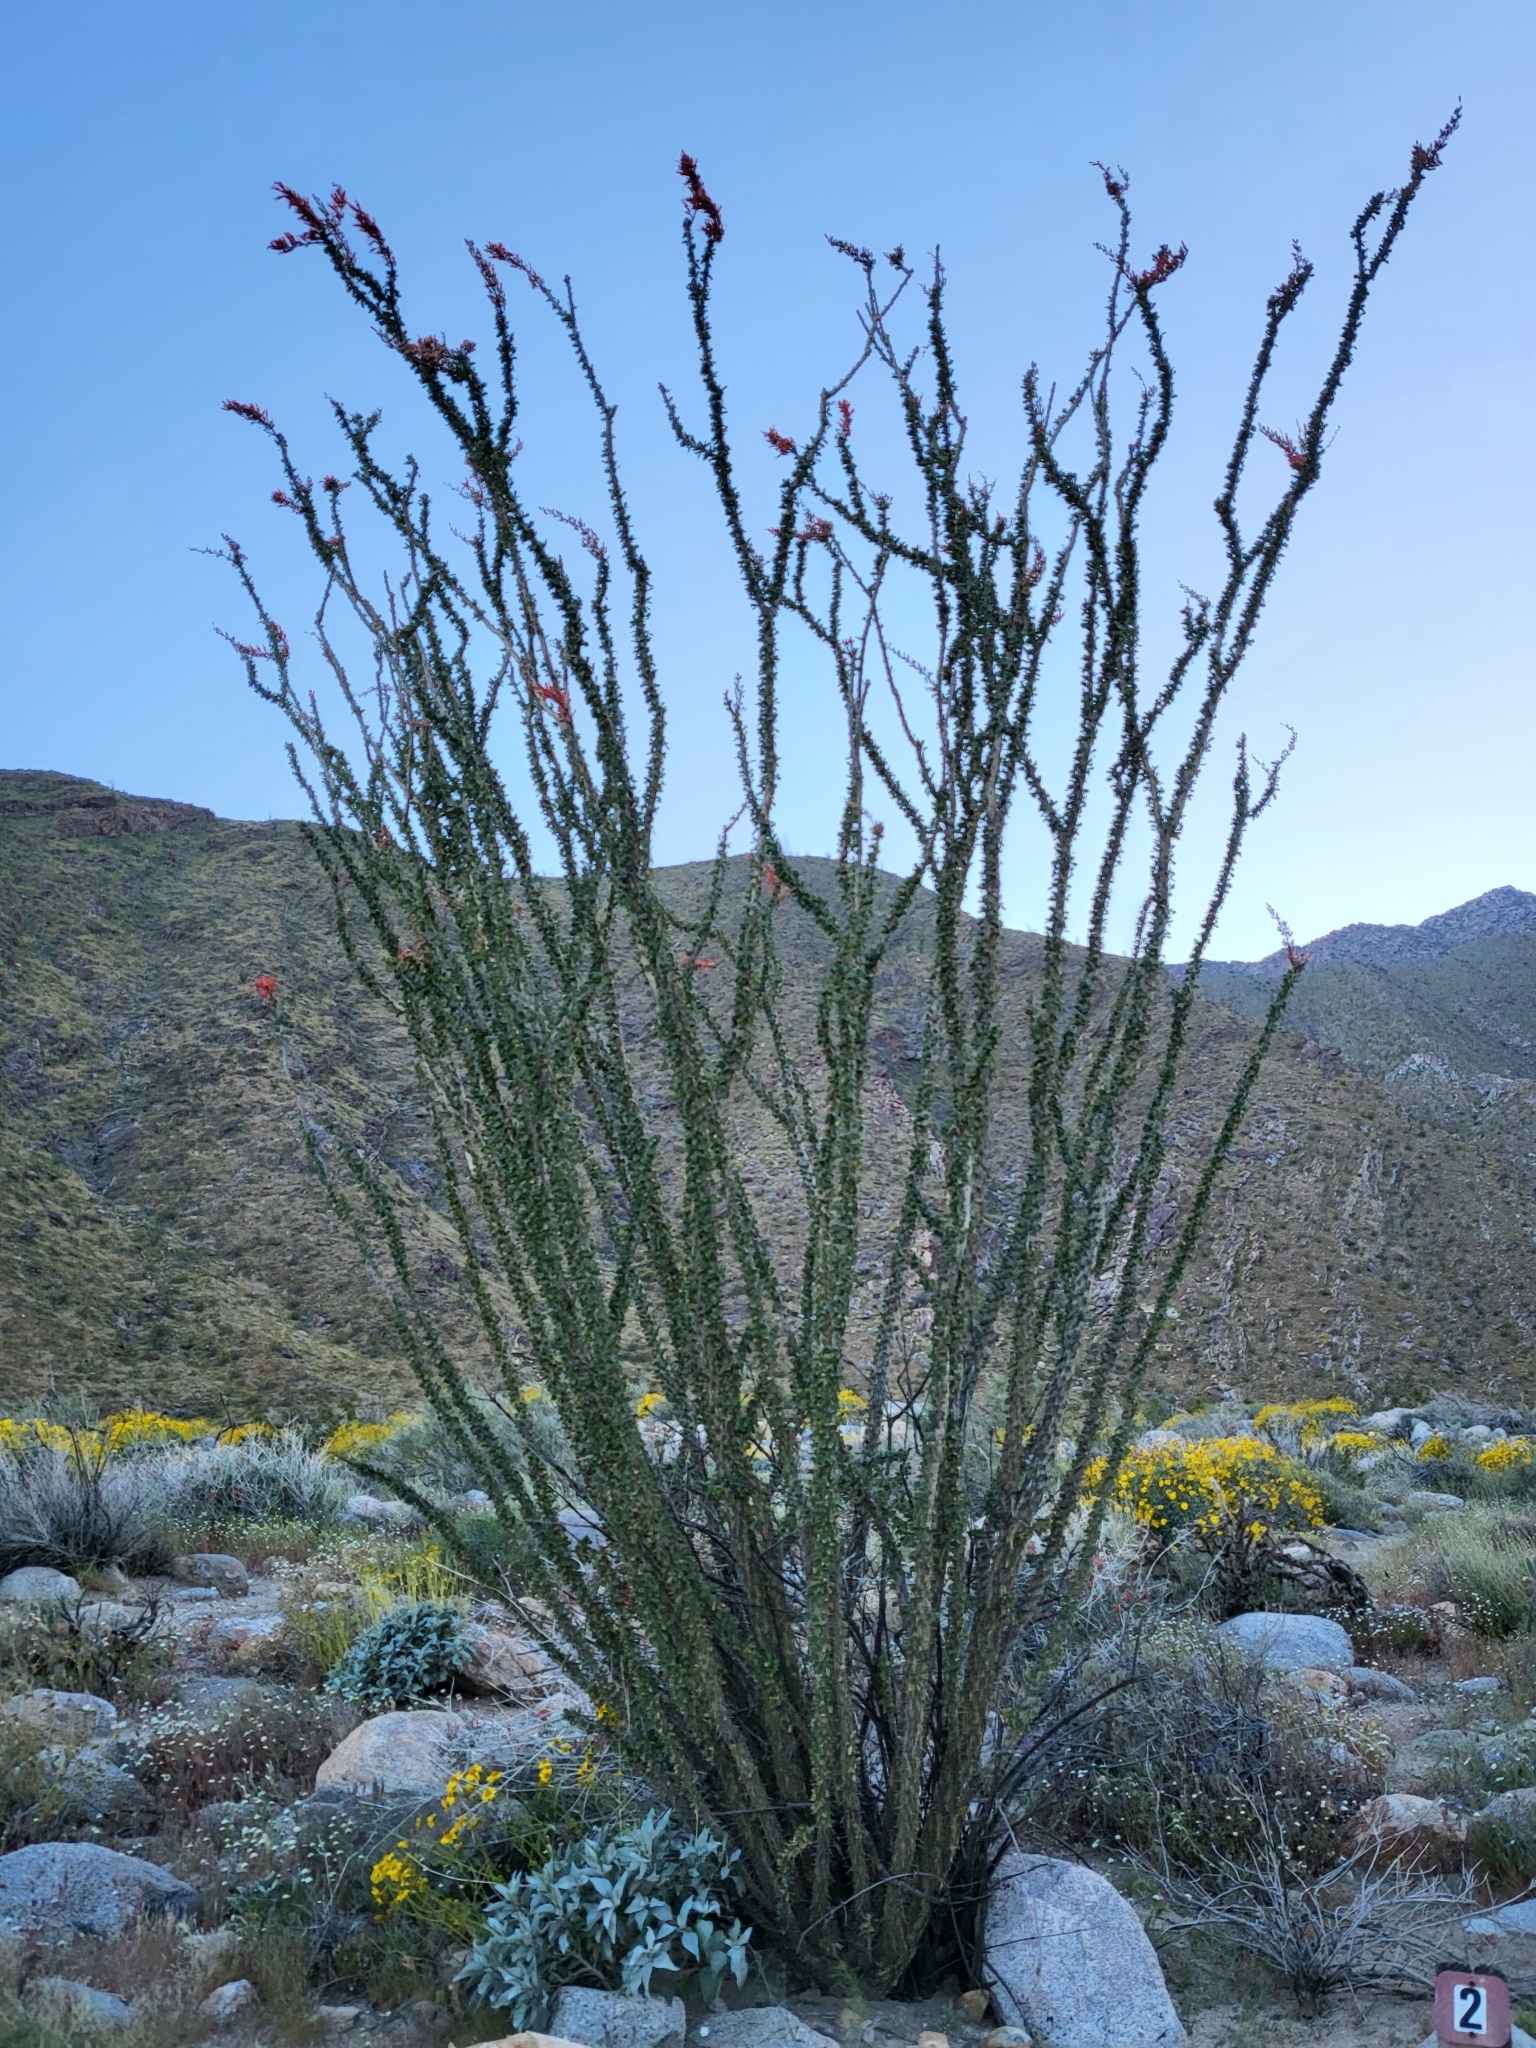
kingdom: Plantae
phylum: Tracheophyta
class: Magnoliopsida
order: Ericales
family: Fouquieriaceae
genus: Fouquieria
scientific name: Fouquieria splendens
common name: Vine-cactus
